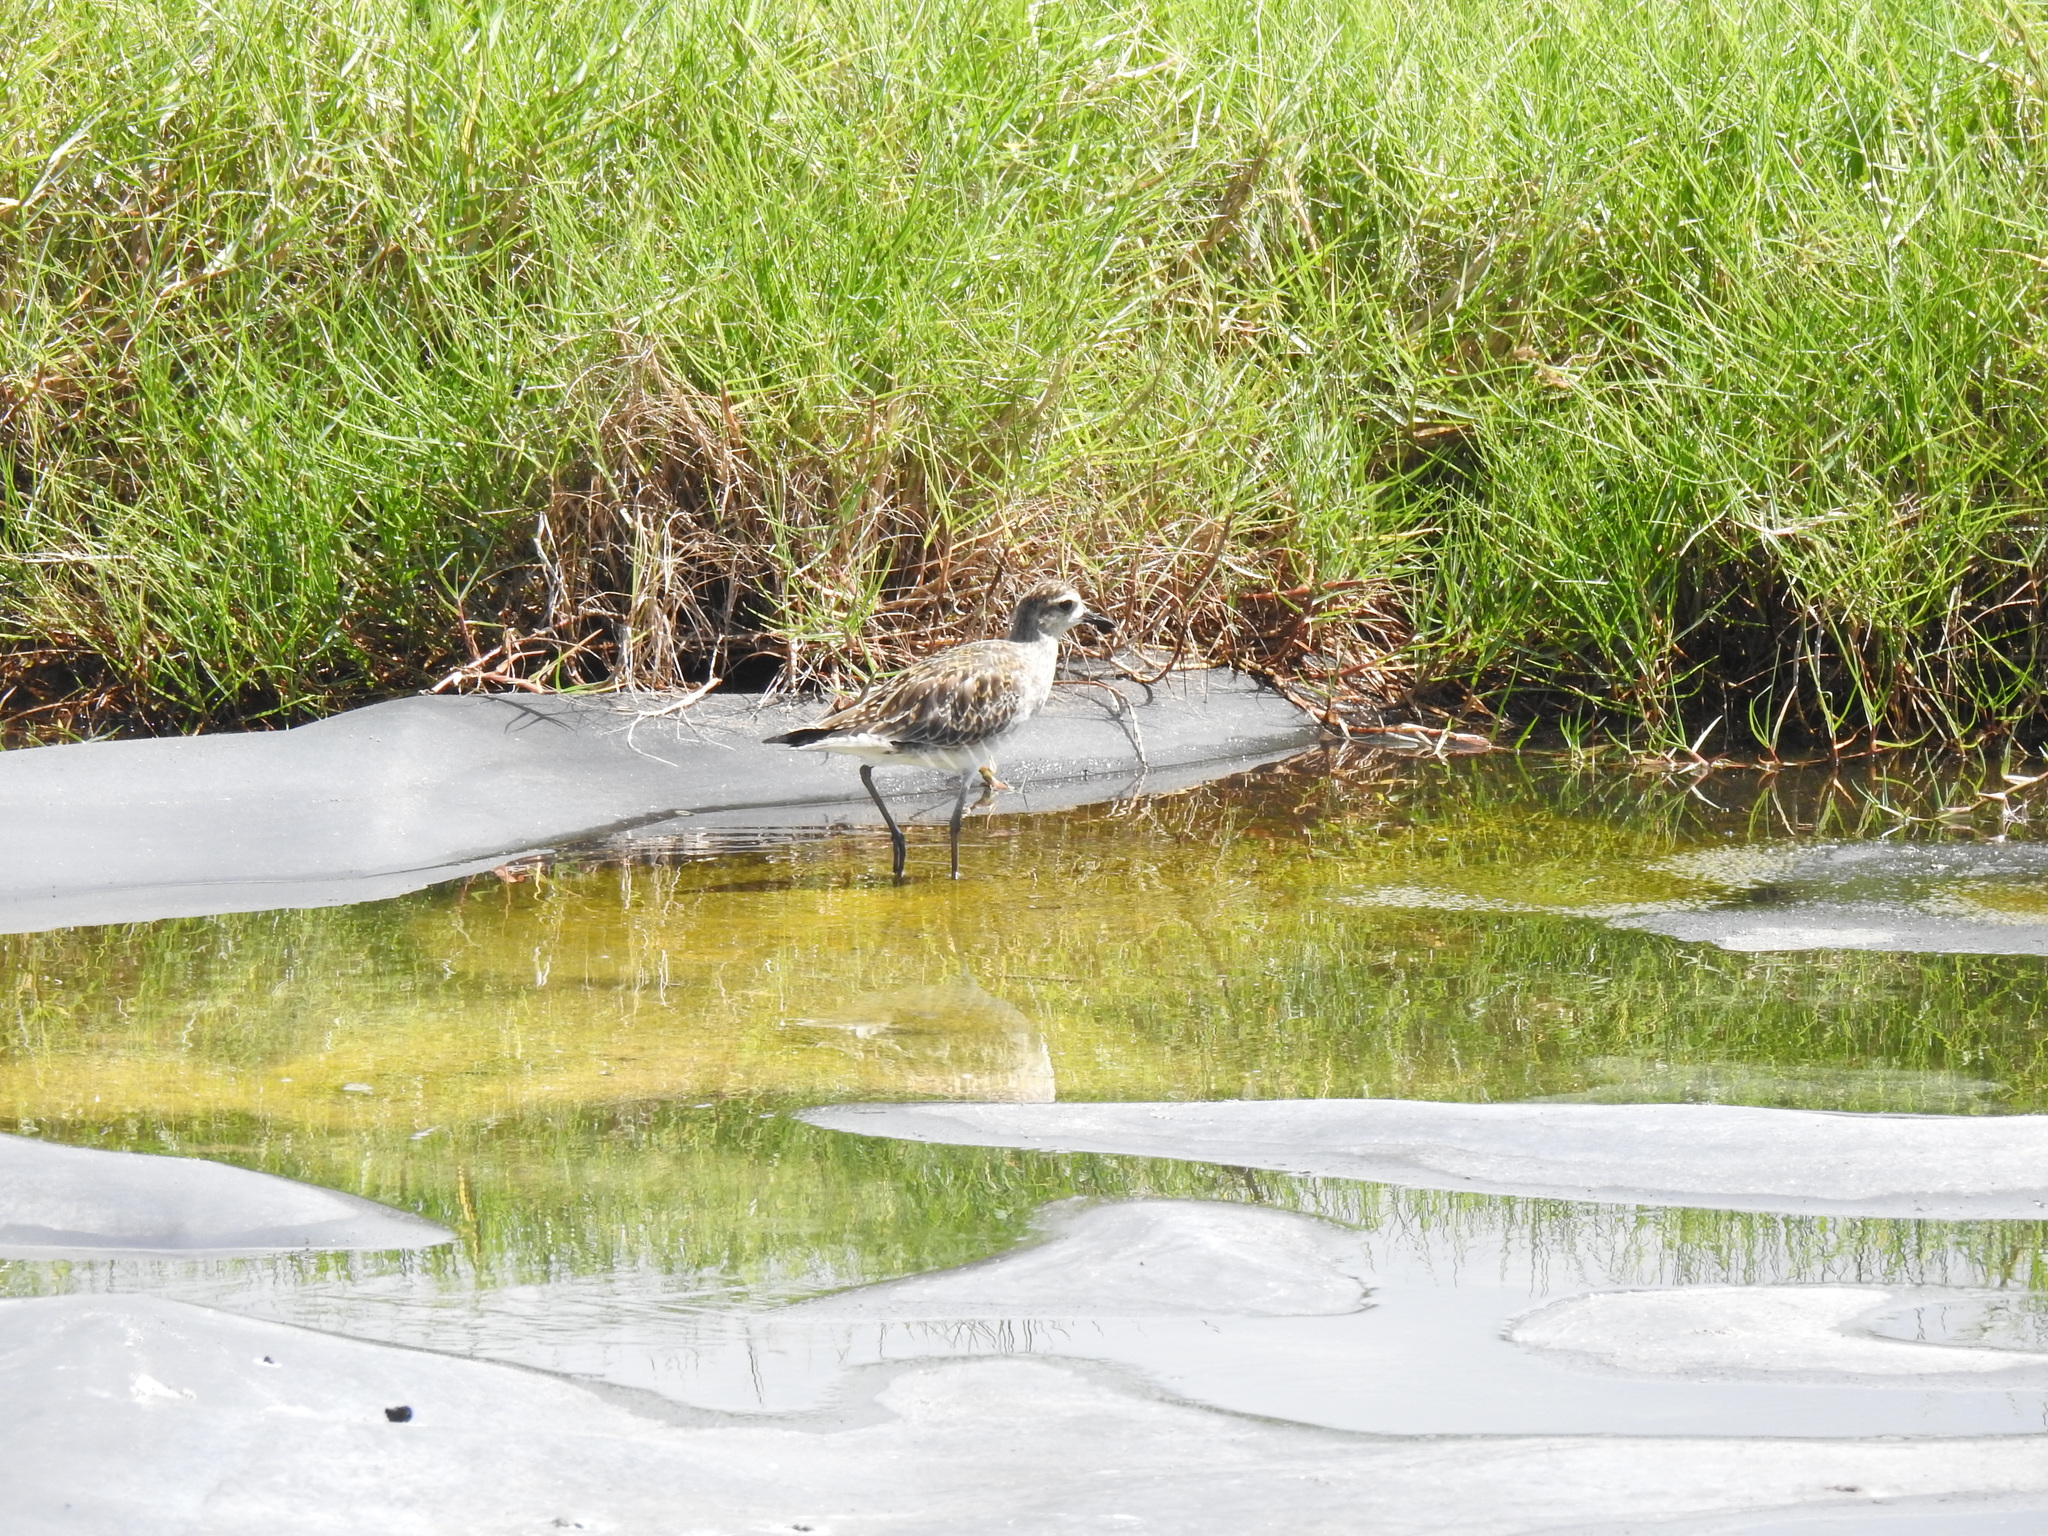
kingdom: Animalia
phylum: Chordata
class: Aves
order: Charadriiformes
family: Charadriidae
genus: Pluvialis
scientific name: Pluvialis fulva
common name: Pacific golden plover
